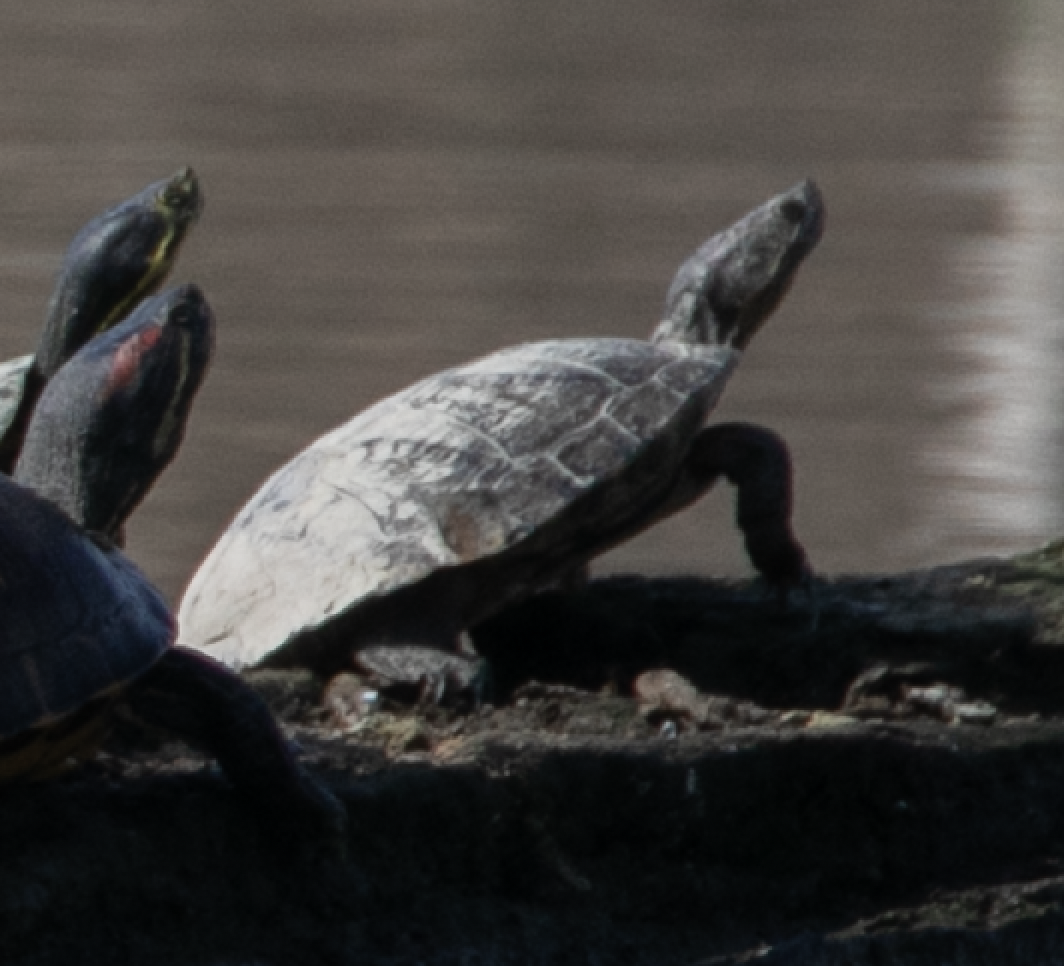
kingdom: Animalia
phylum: Chordata
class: Testudines
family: Emydidae
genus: Trachemys
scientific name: Trachemys scripta
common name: Slider
